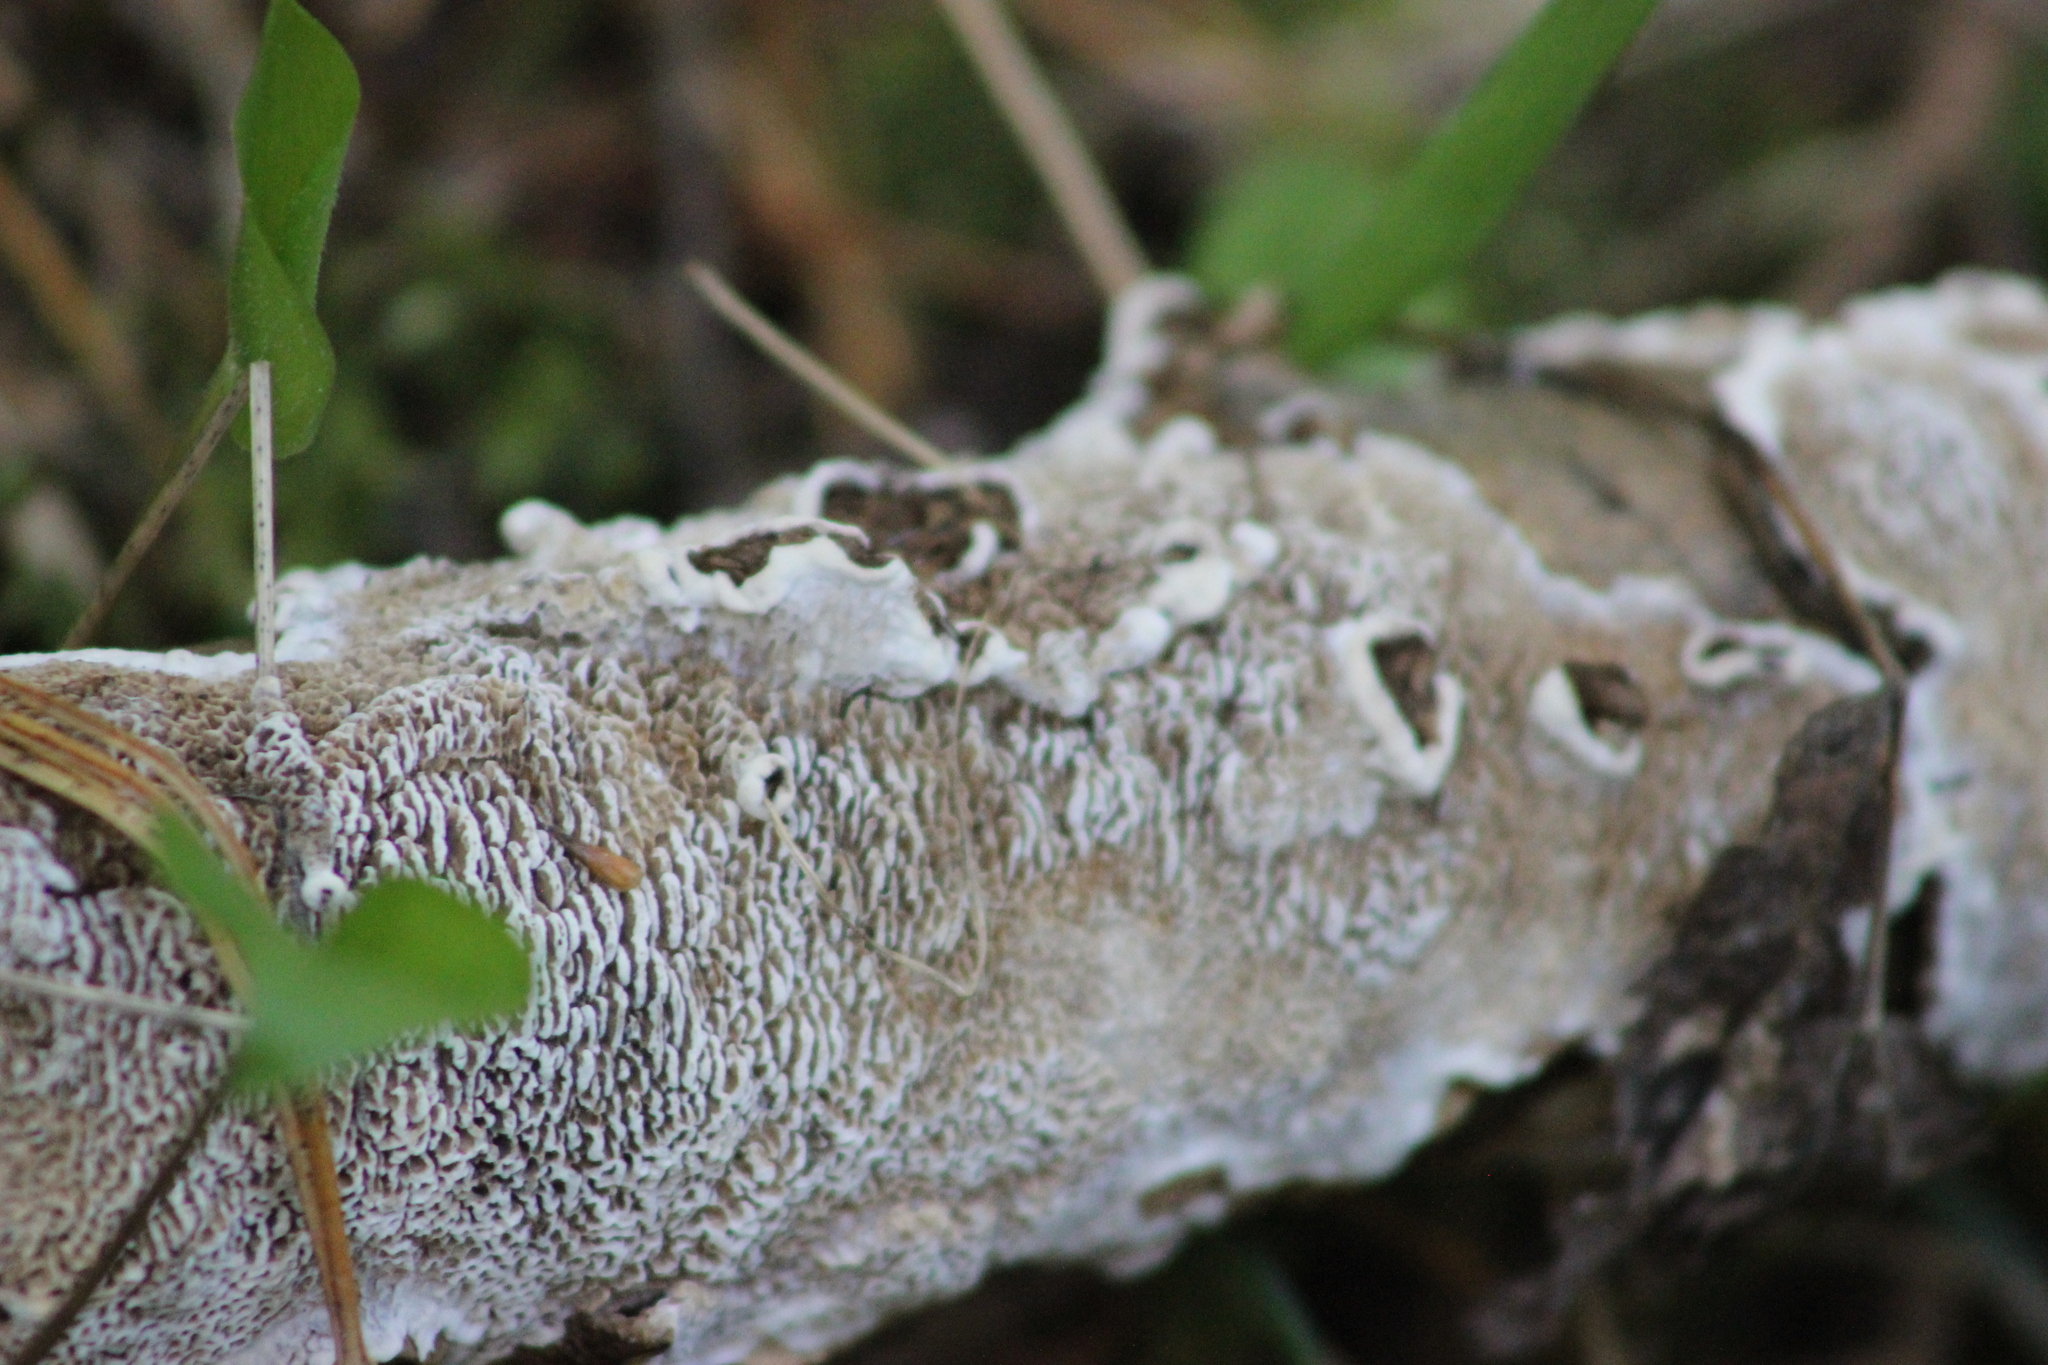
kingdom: Fungi
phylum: Basidiomycota
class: Agaricomycetes
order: Polyporales
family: Polyporaceae
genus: Podofomes
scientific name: Podofomes mollis
